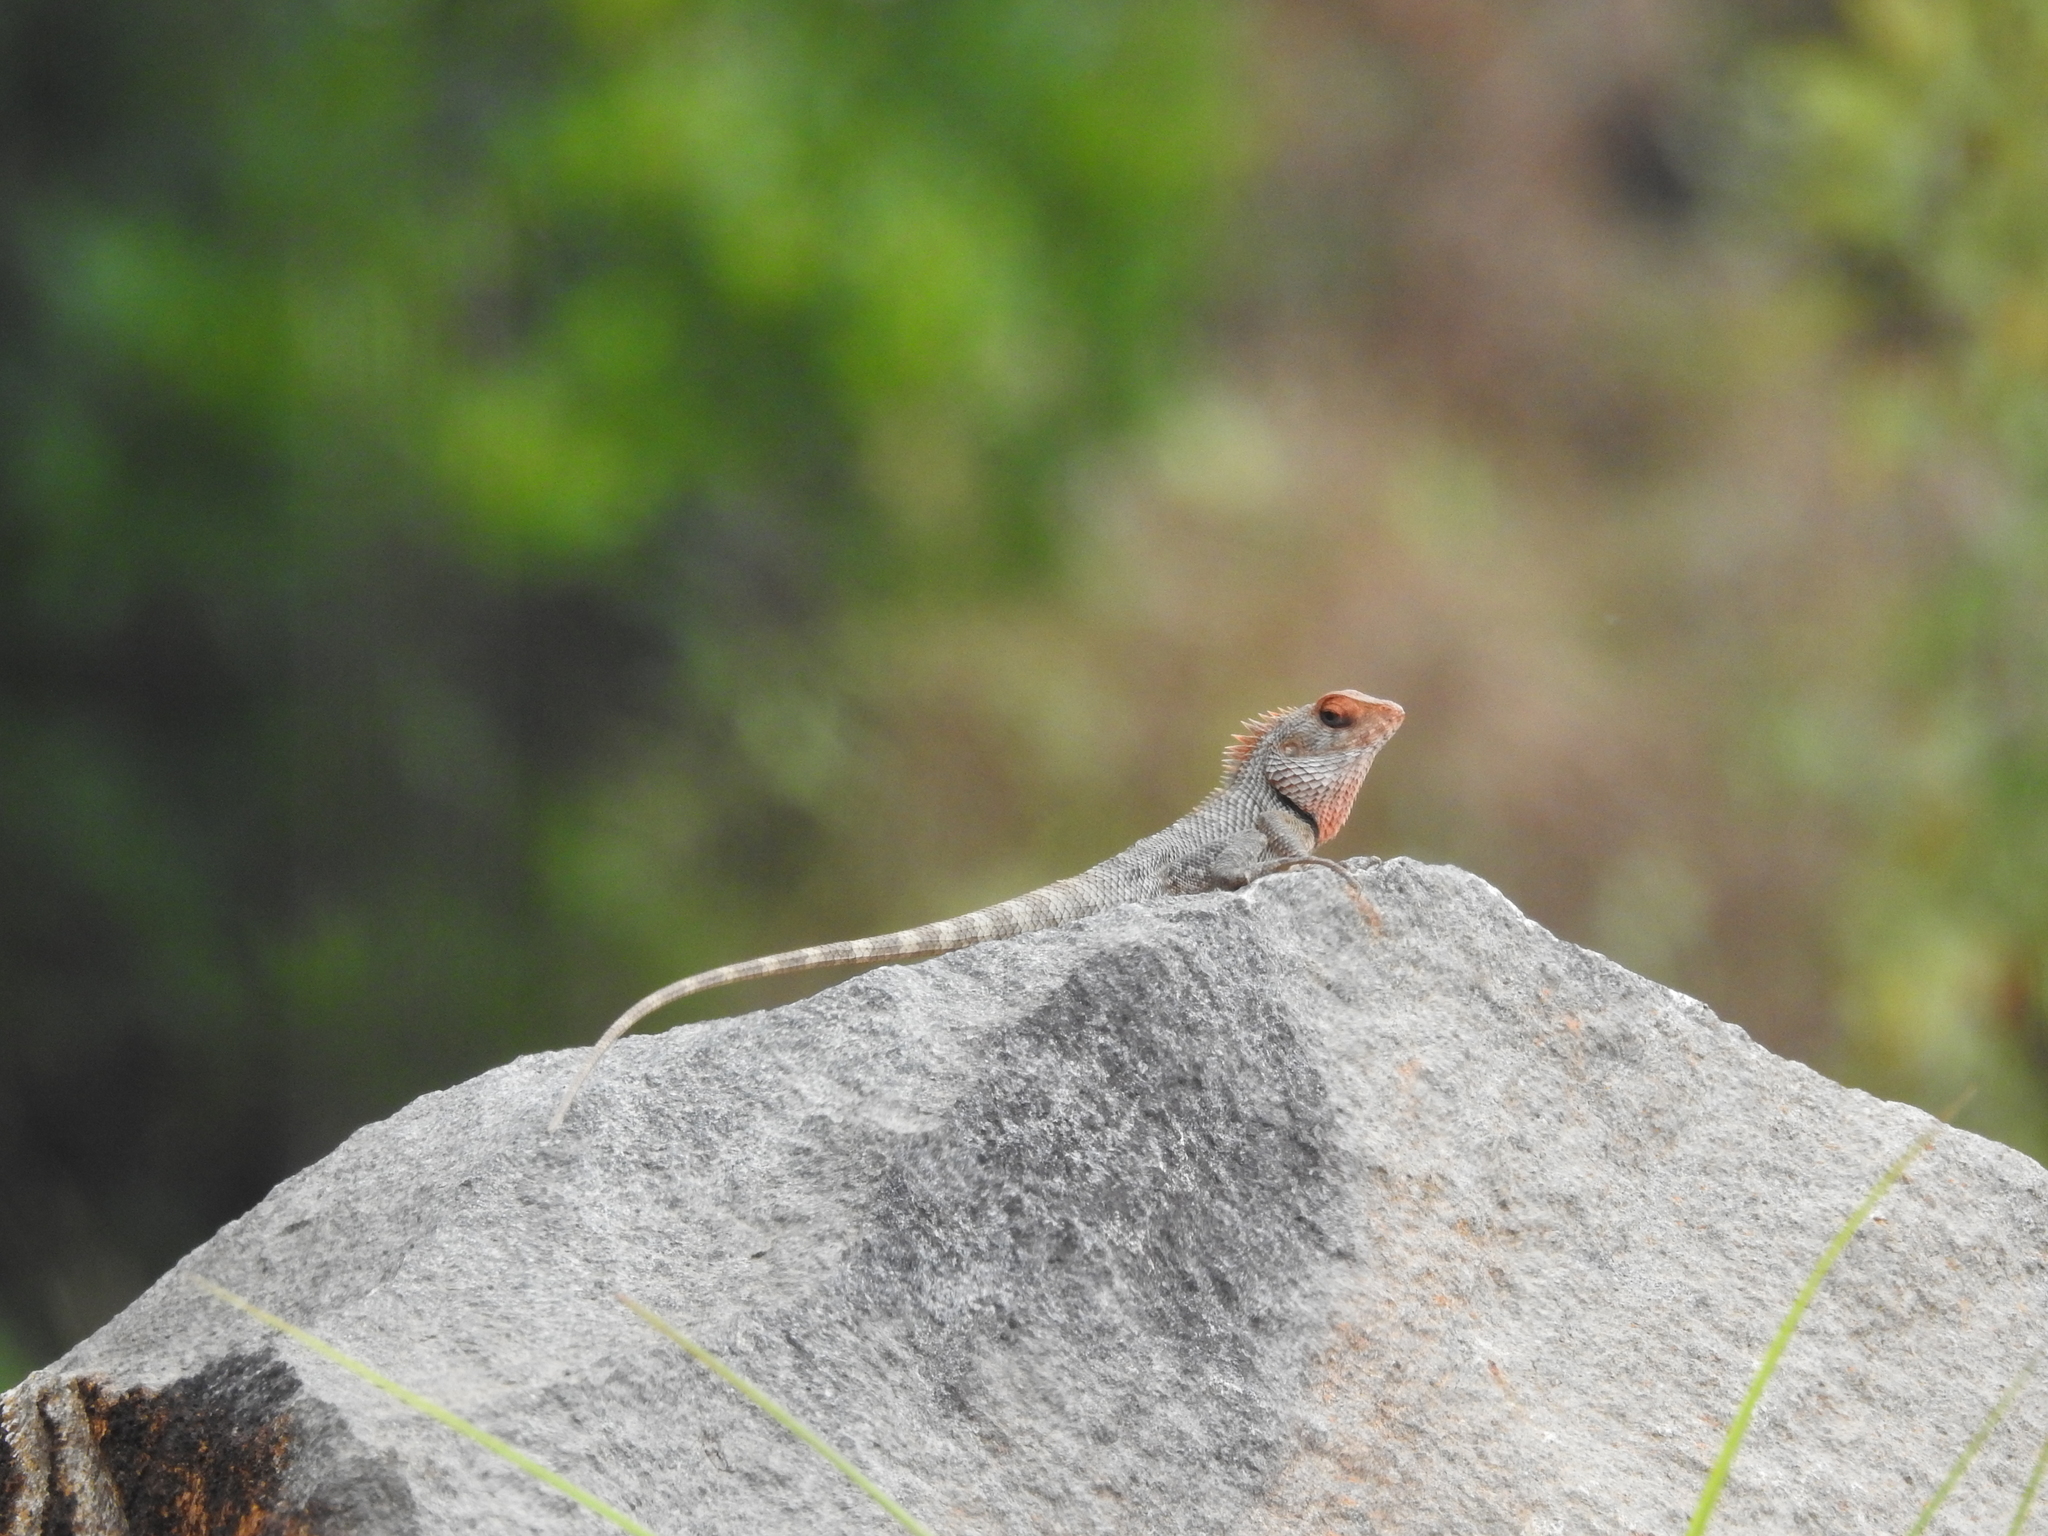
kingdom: Animalia
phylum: Chordata
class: Squamata
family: Agamidae
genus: Calotes
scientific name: Calotes versicolor
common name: Oriental garden lizard
